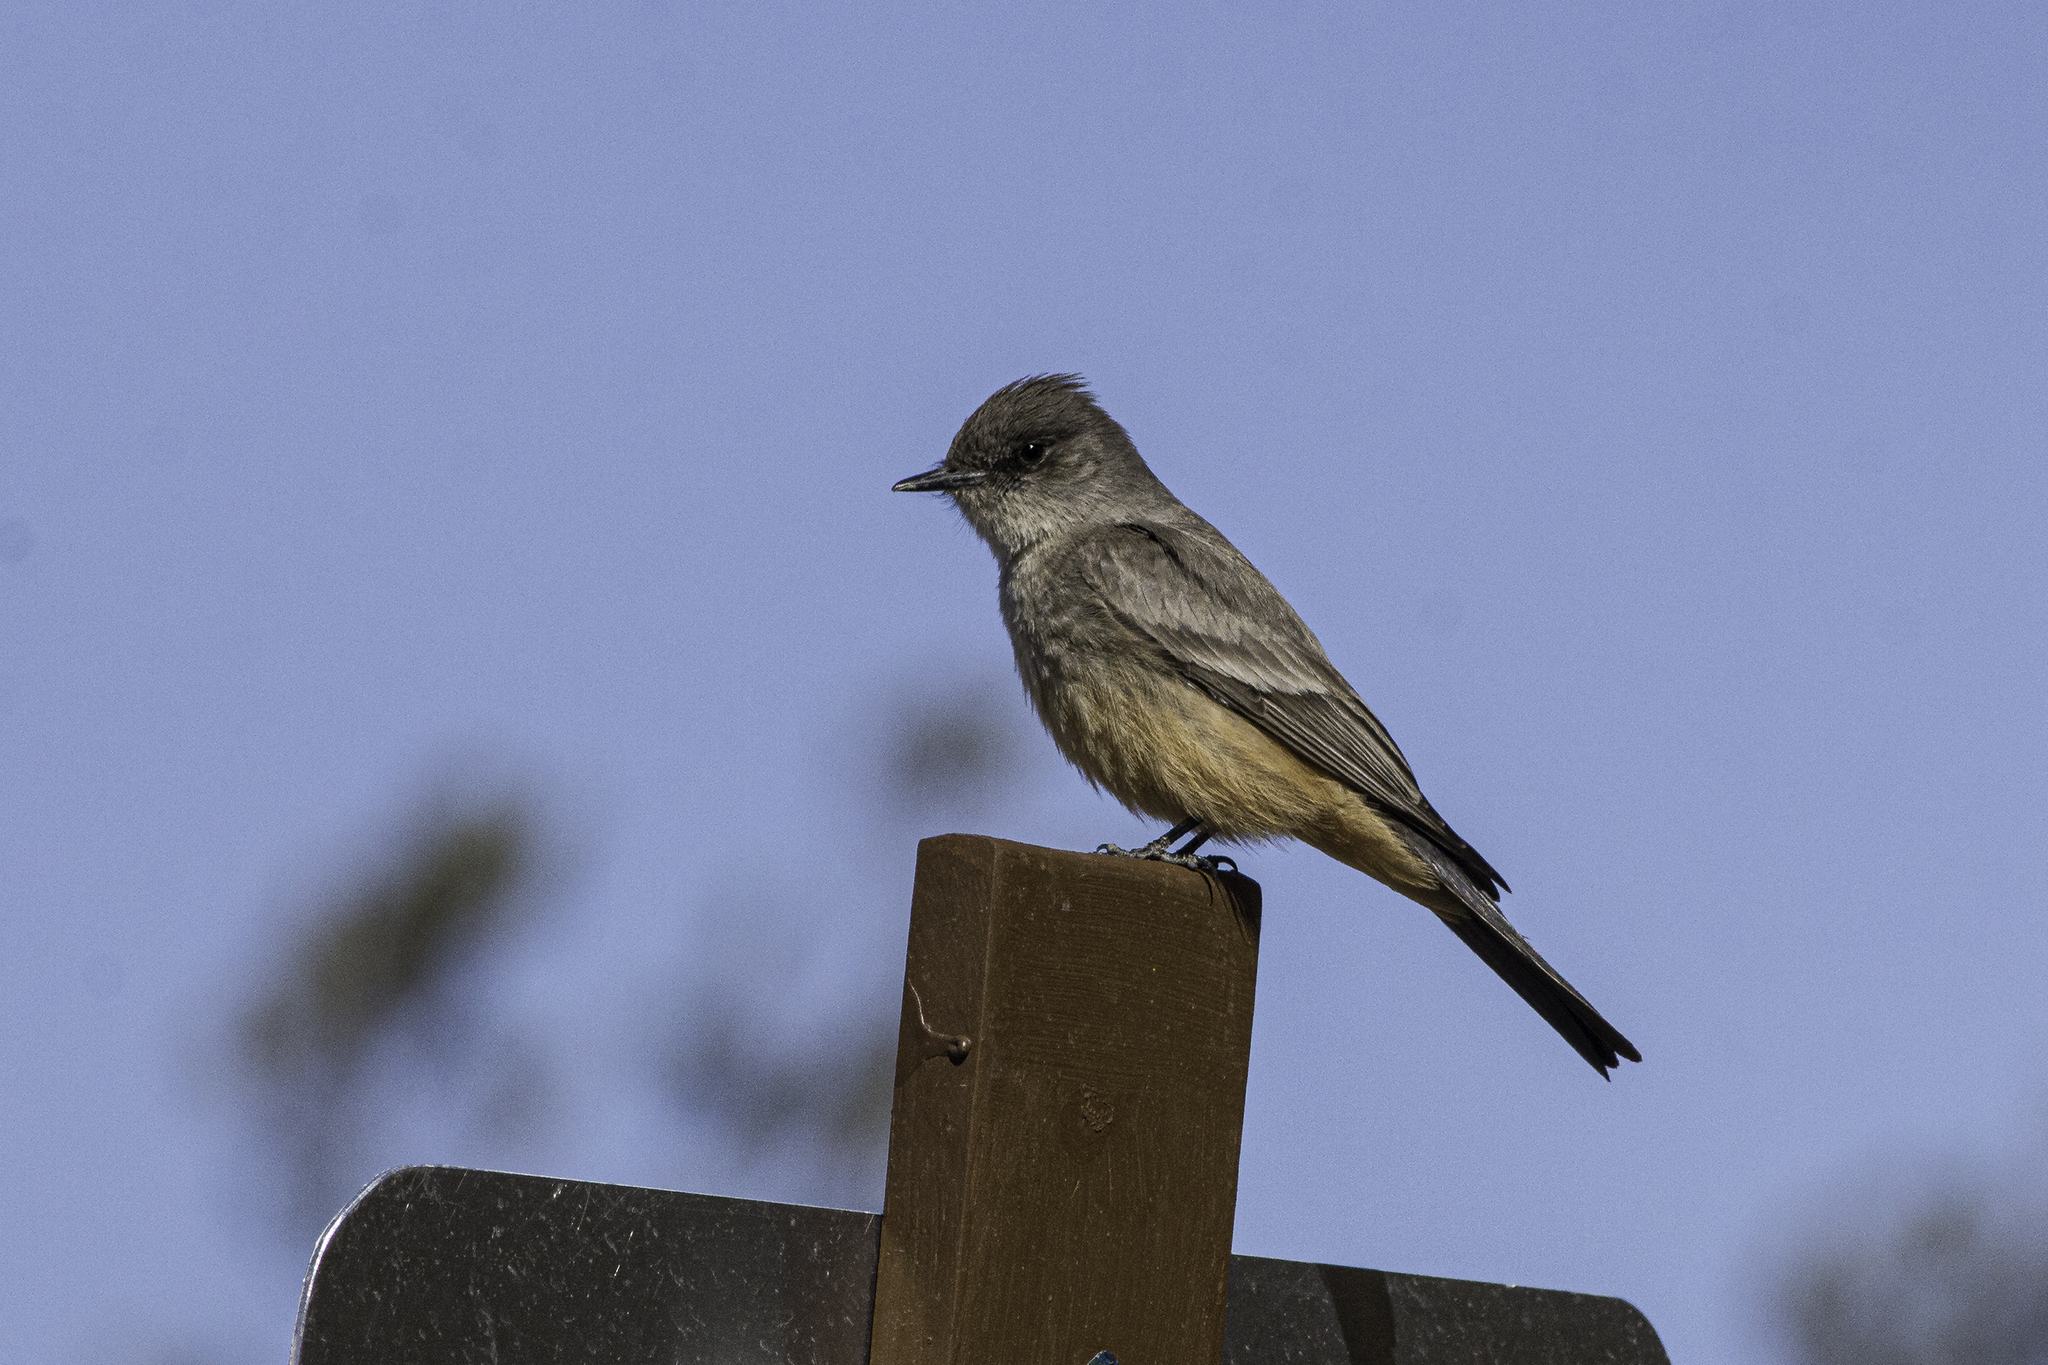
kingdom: Animalia
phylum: Chordata
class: Aves
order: Passeriformes
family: Tyrannidae
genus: Sayornis
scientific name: Sayornis saya
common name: Say's phoebe
